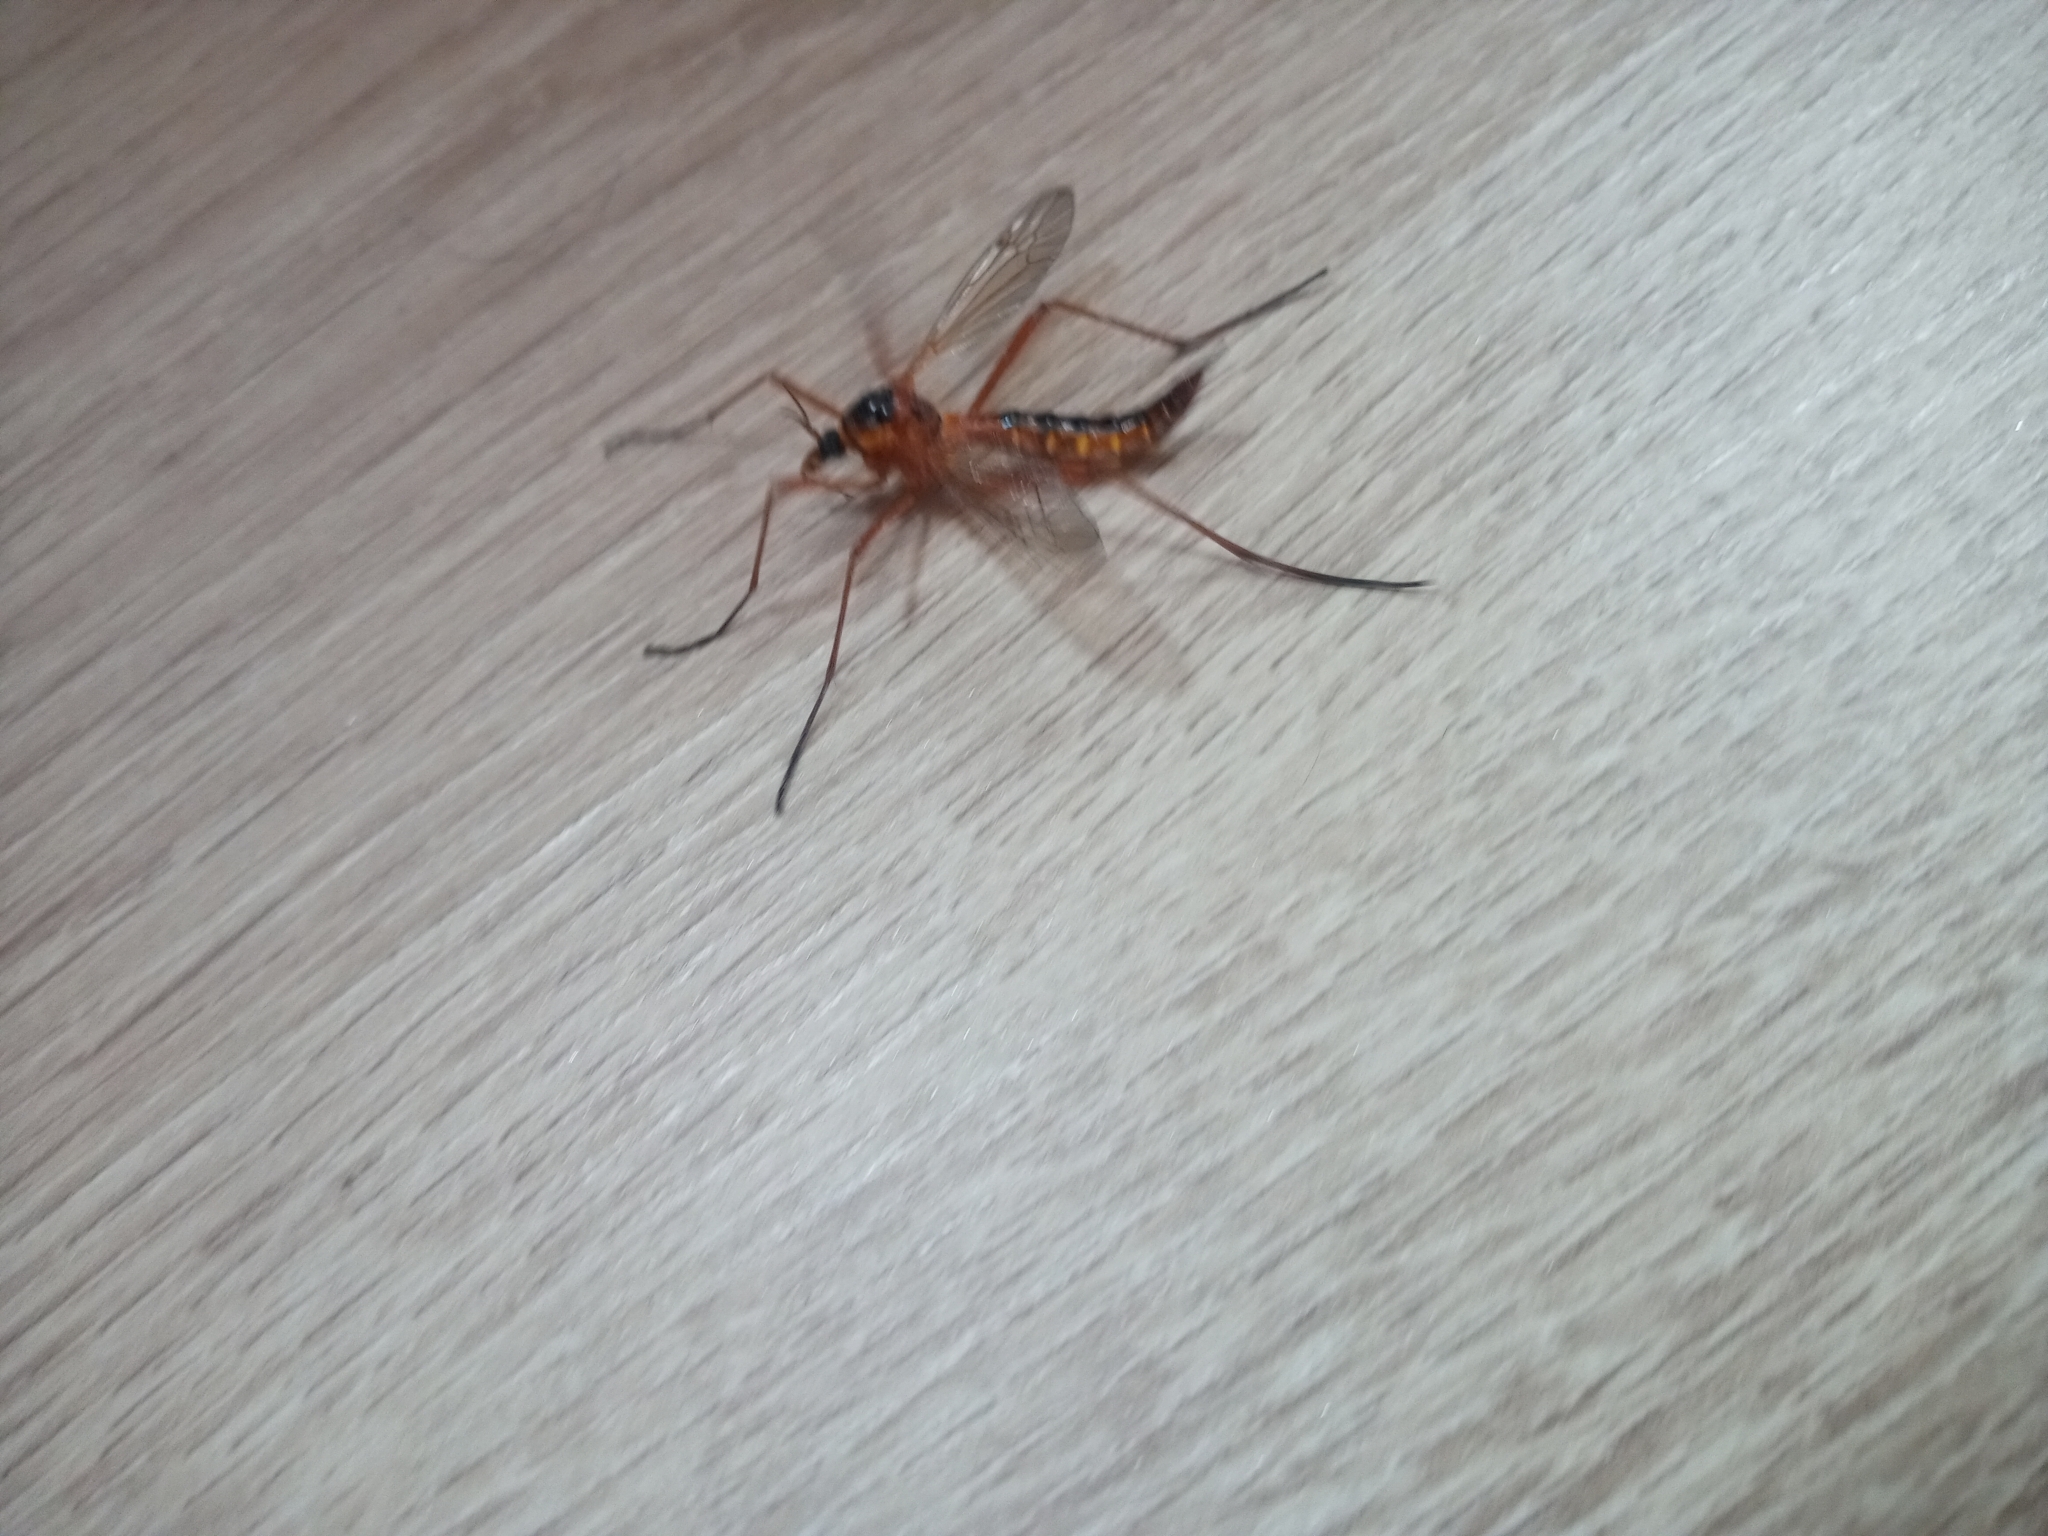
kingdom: Animalia
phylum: Arthropoda
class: Insecta
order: Diptera
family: Tipulidae
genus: Ctenophora
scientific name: Ctenophora pectinicornis
